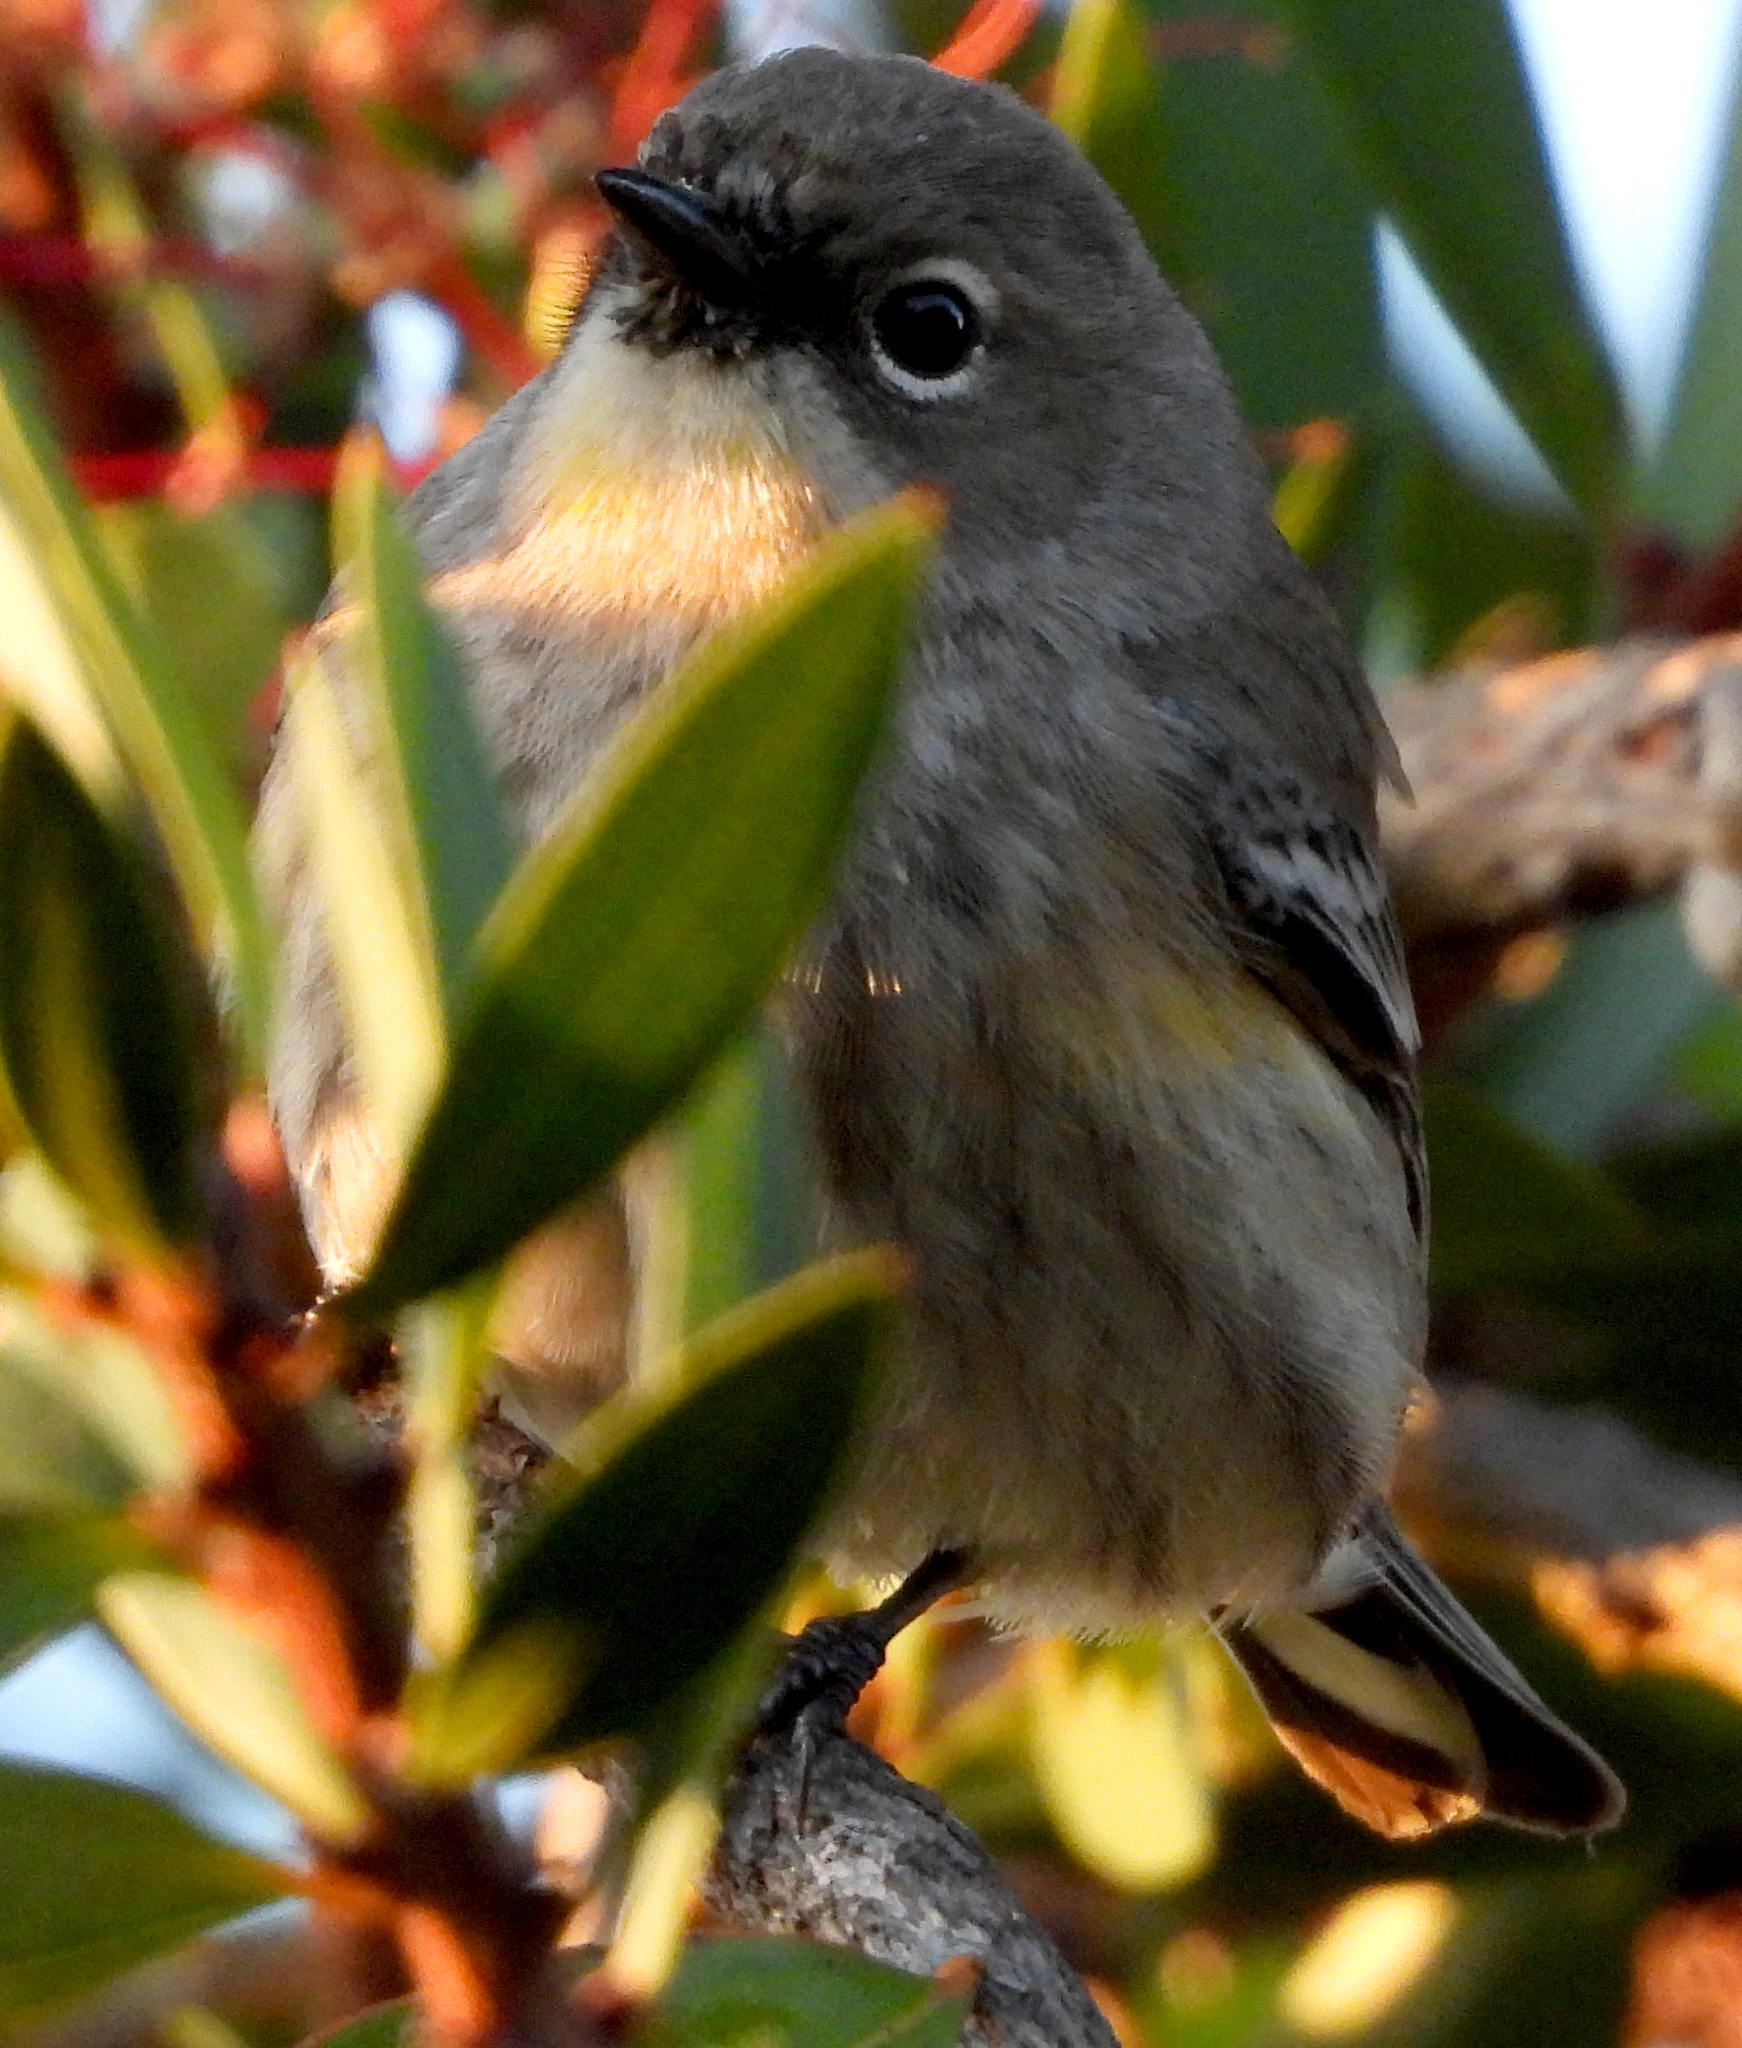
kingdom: Animalia
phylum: Chordata
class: Aves
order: Passeriformes
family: Parulidae
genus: Setophaga
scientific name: Setophaga coronata
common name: Myrtle warbler
